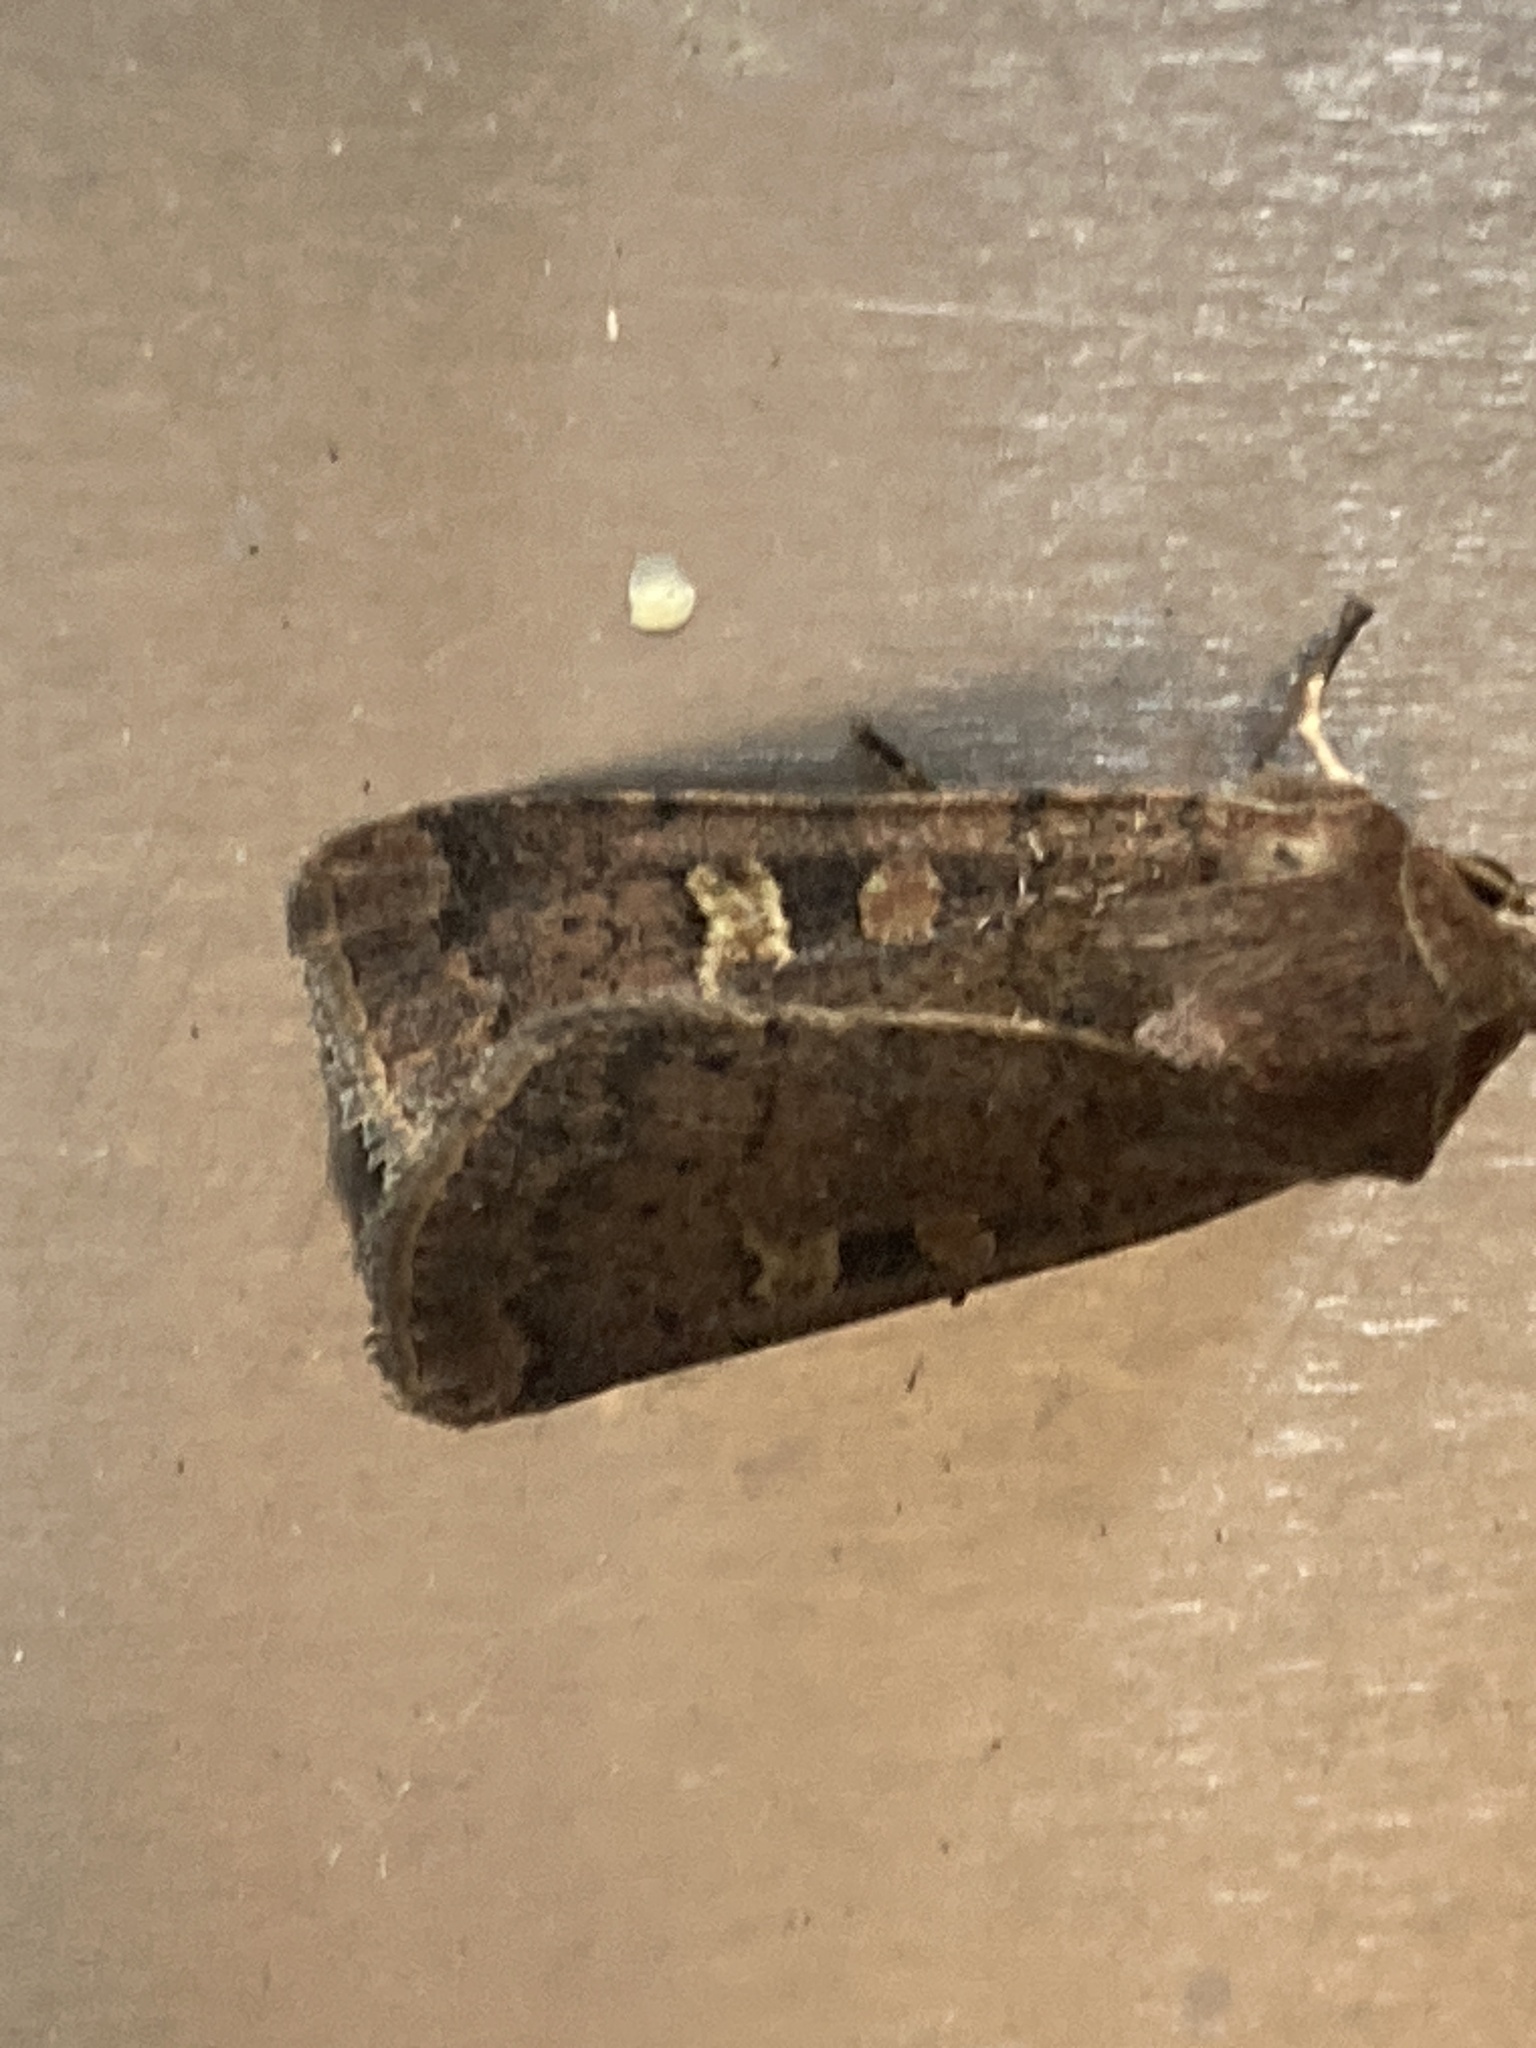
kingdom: Animalia
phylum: Arthropoda
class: Insecta
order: Lepidoptera
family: Noctuidae
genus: Xestia
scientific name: Xestia xanthographa
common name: Square-spot rustic
